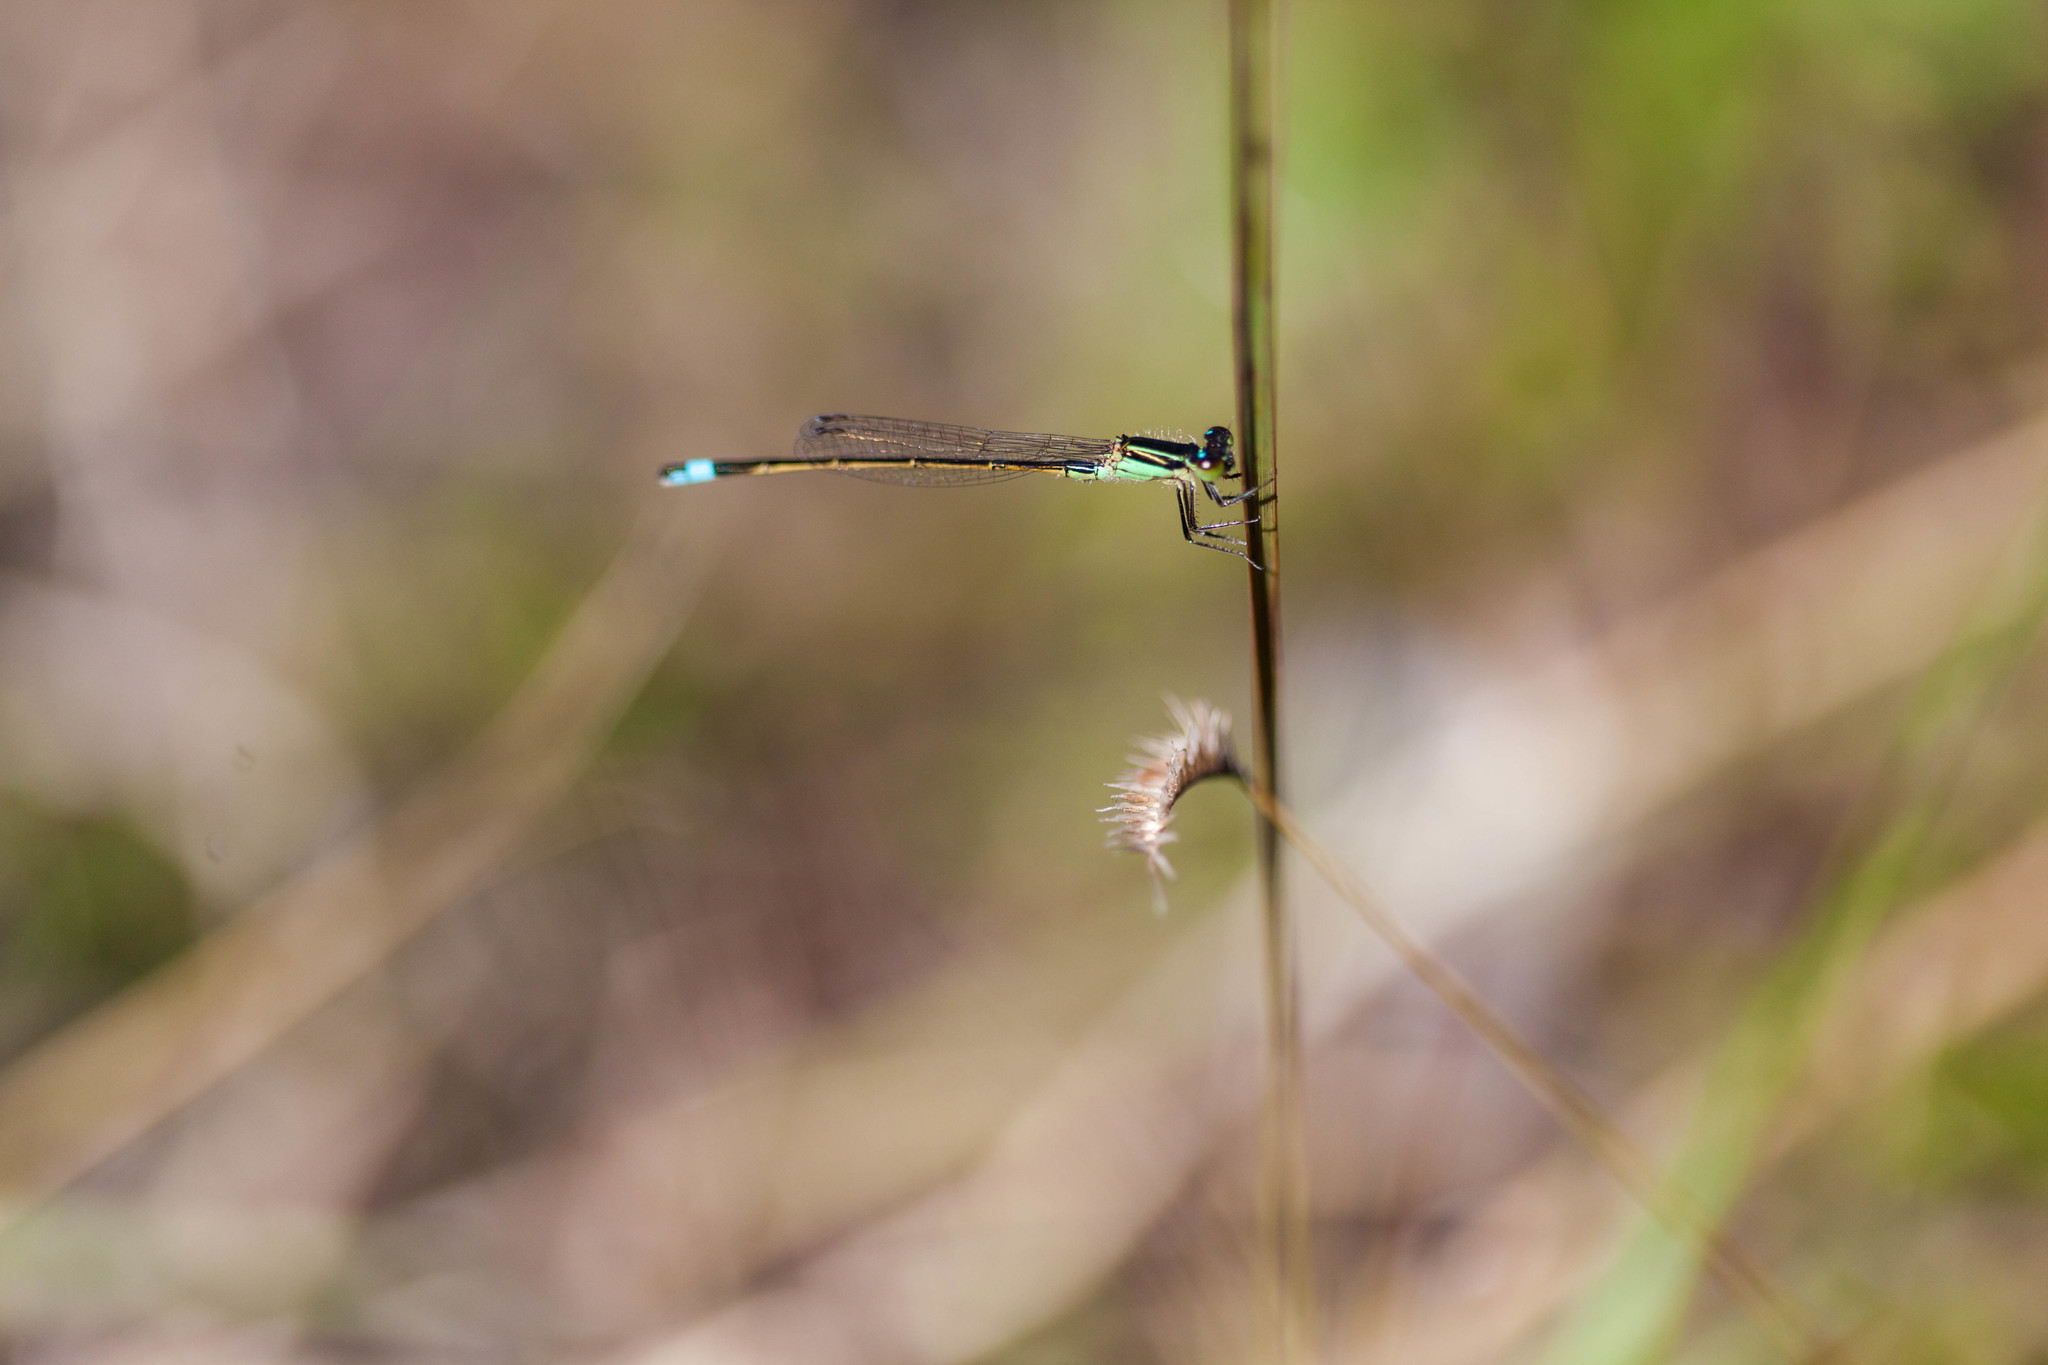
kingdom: Animalia
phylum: Arthropoda
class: Insecta
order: Odonata
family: Coenagrionidae
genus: Ischnura
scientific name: Ischnura ramburii
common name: Rambur's forktail
